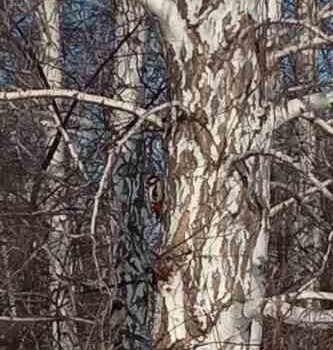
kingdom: Animalia
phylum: Chordata
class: Aves
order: Piciformes
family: Picidae
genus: Dendrocopos
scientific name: Dendrocopos major
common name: Great spotted woodpecker
